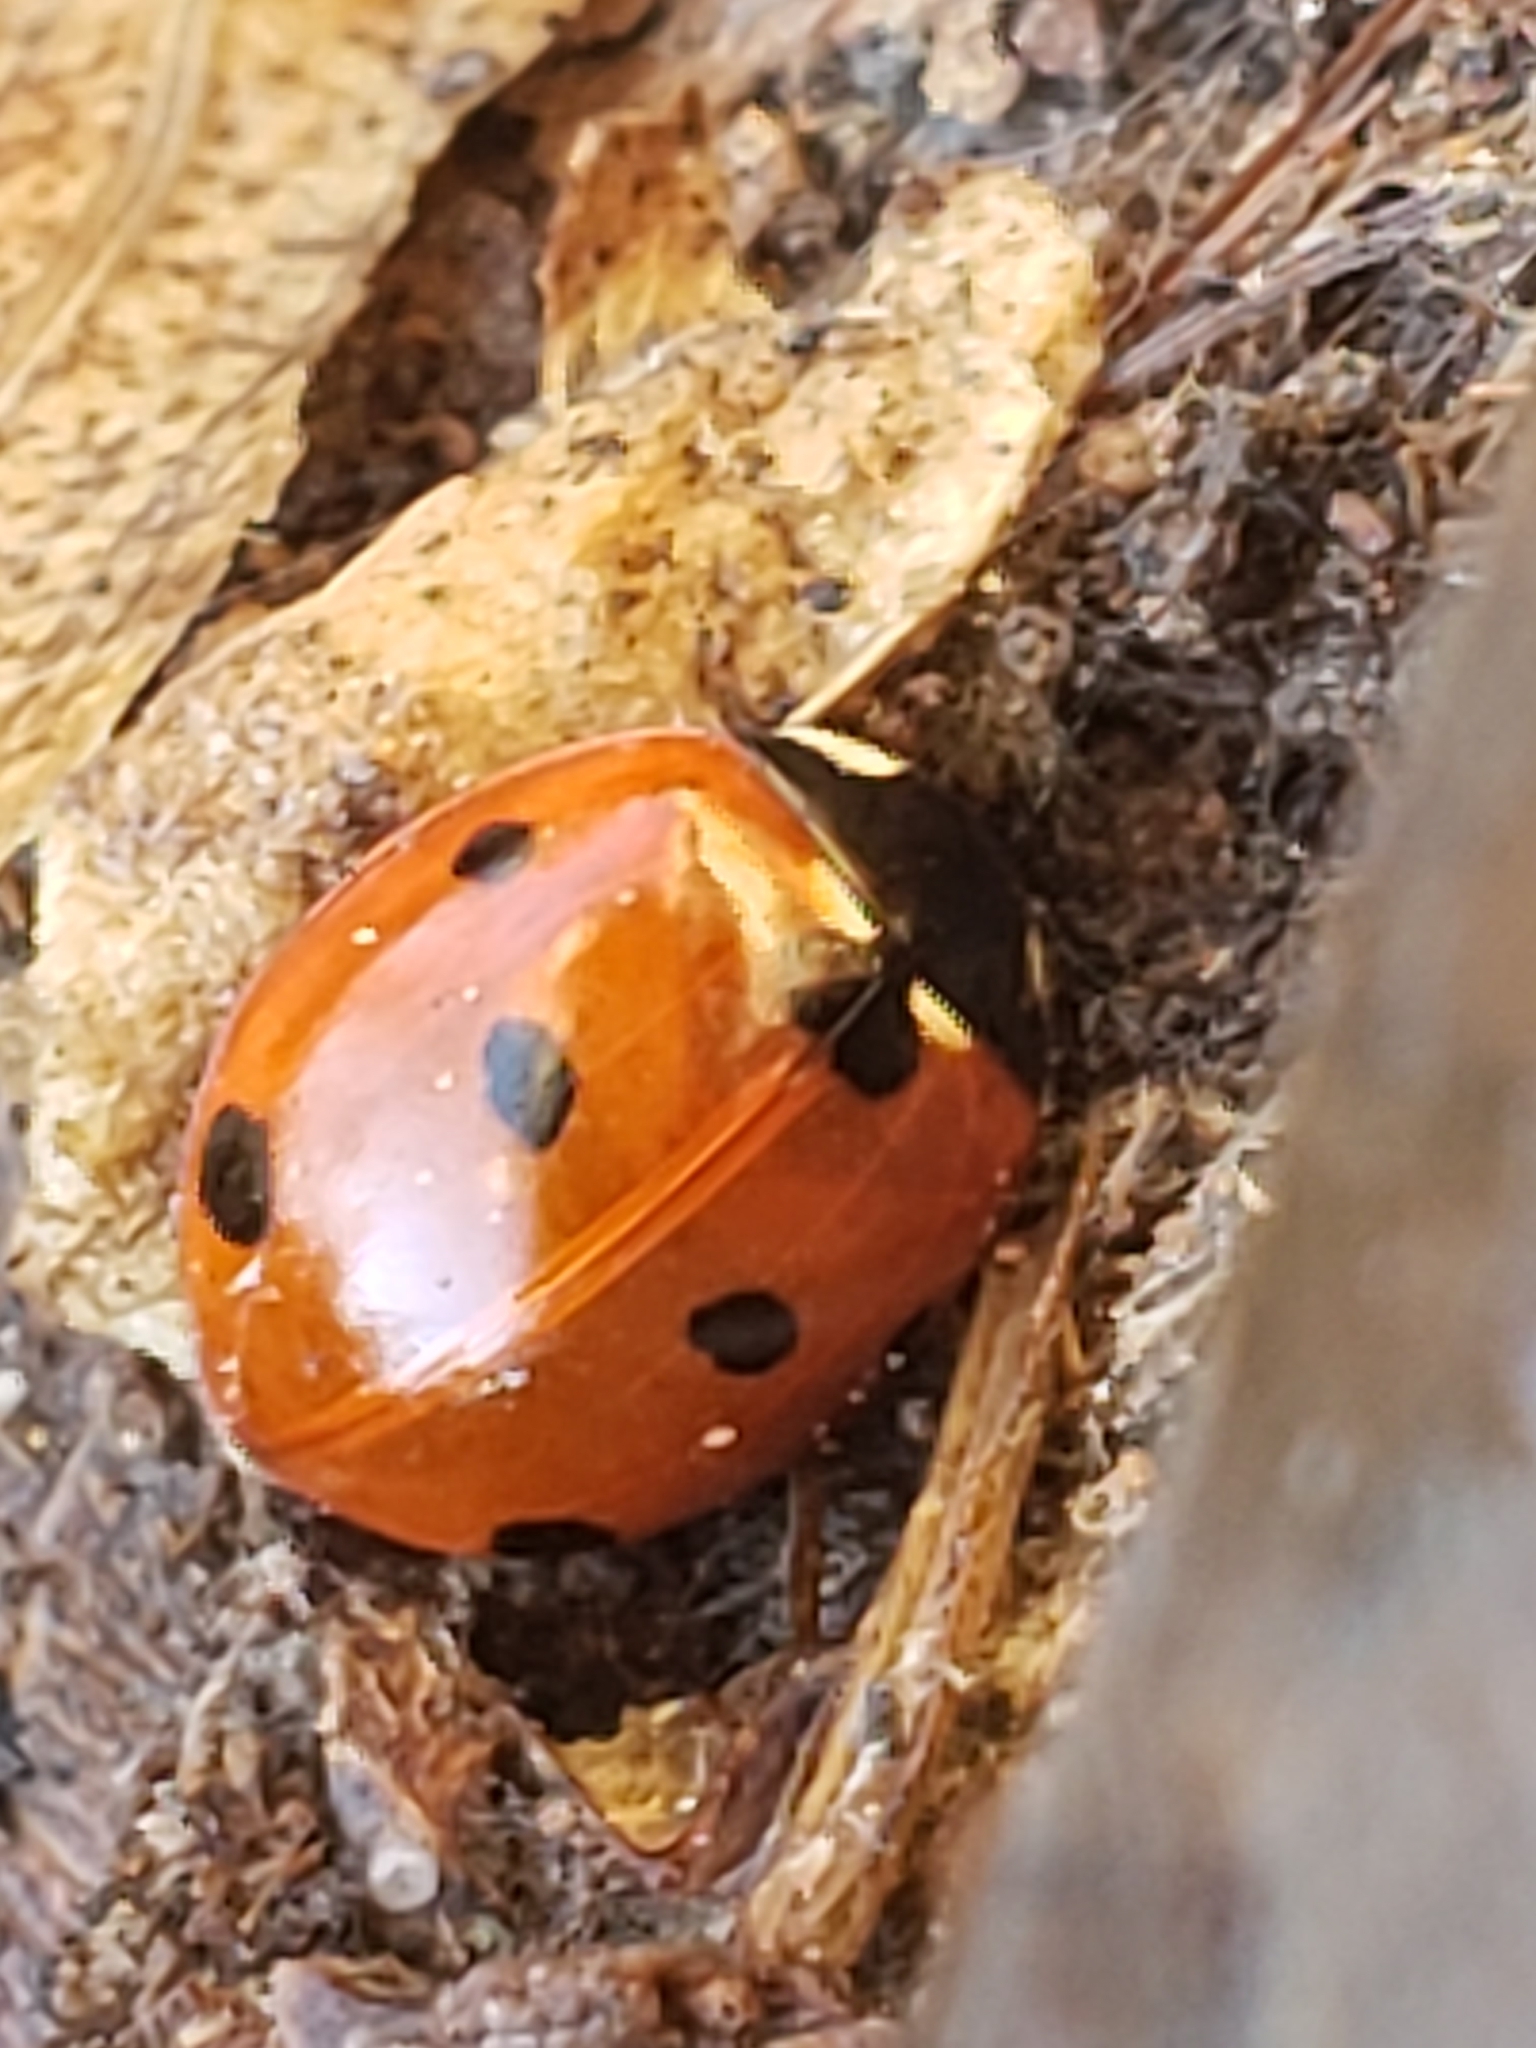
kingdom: Animalia
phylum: Arthropoda
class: Insecta
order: Coleoptera
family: Coccinellidae
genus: Coccinella
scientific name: Coccinella septempunctata
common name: Sevenspotted lady beetle
